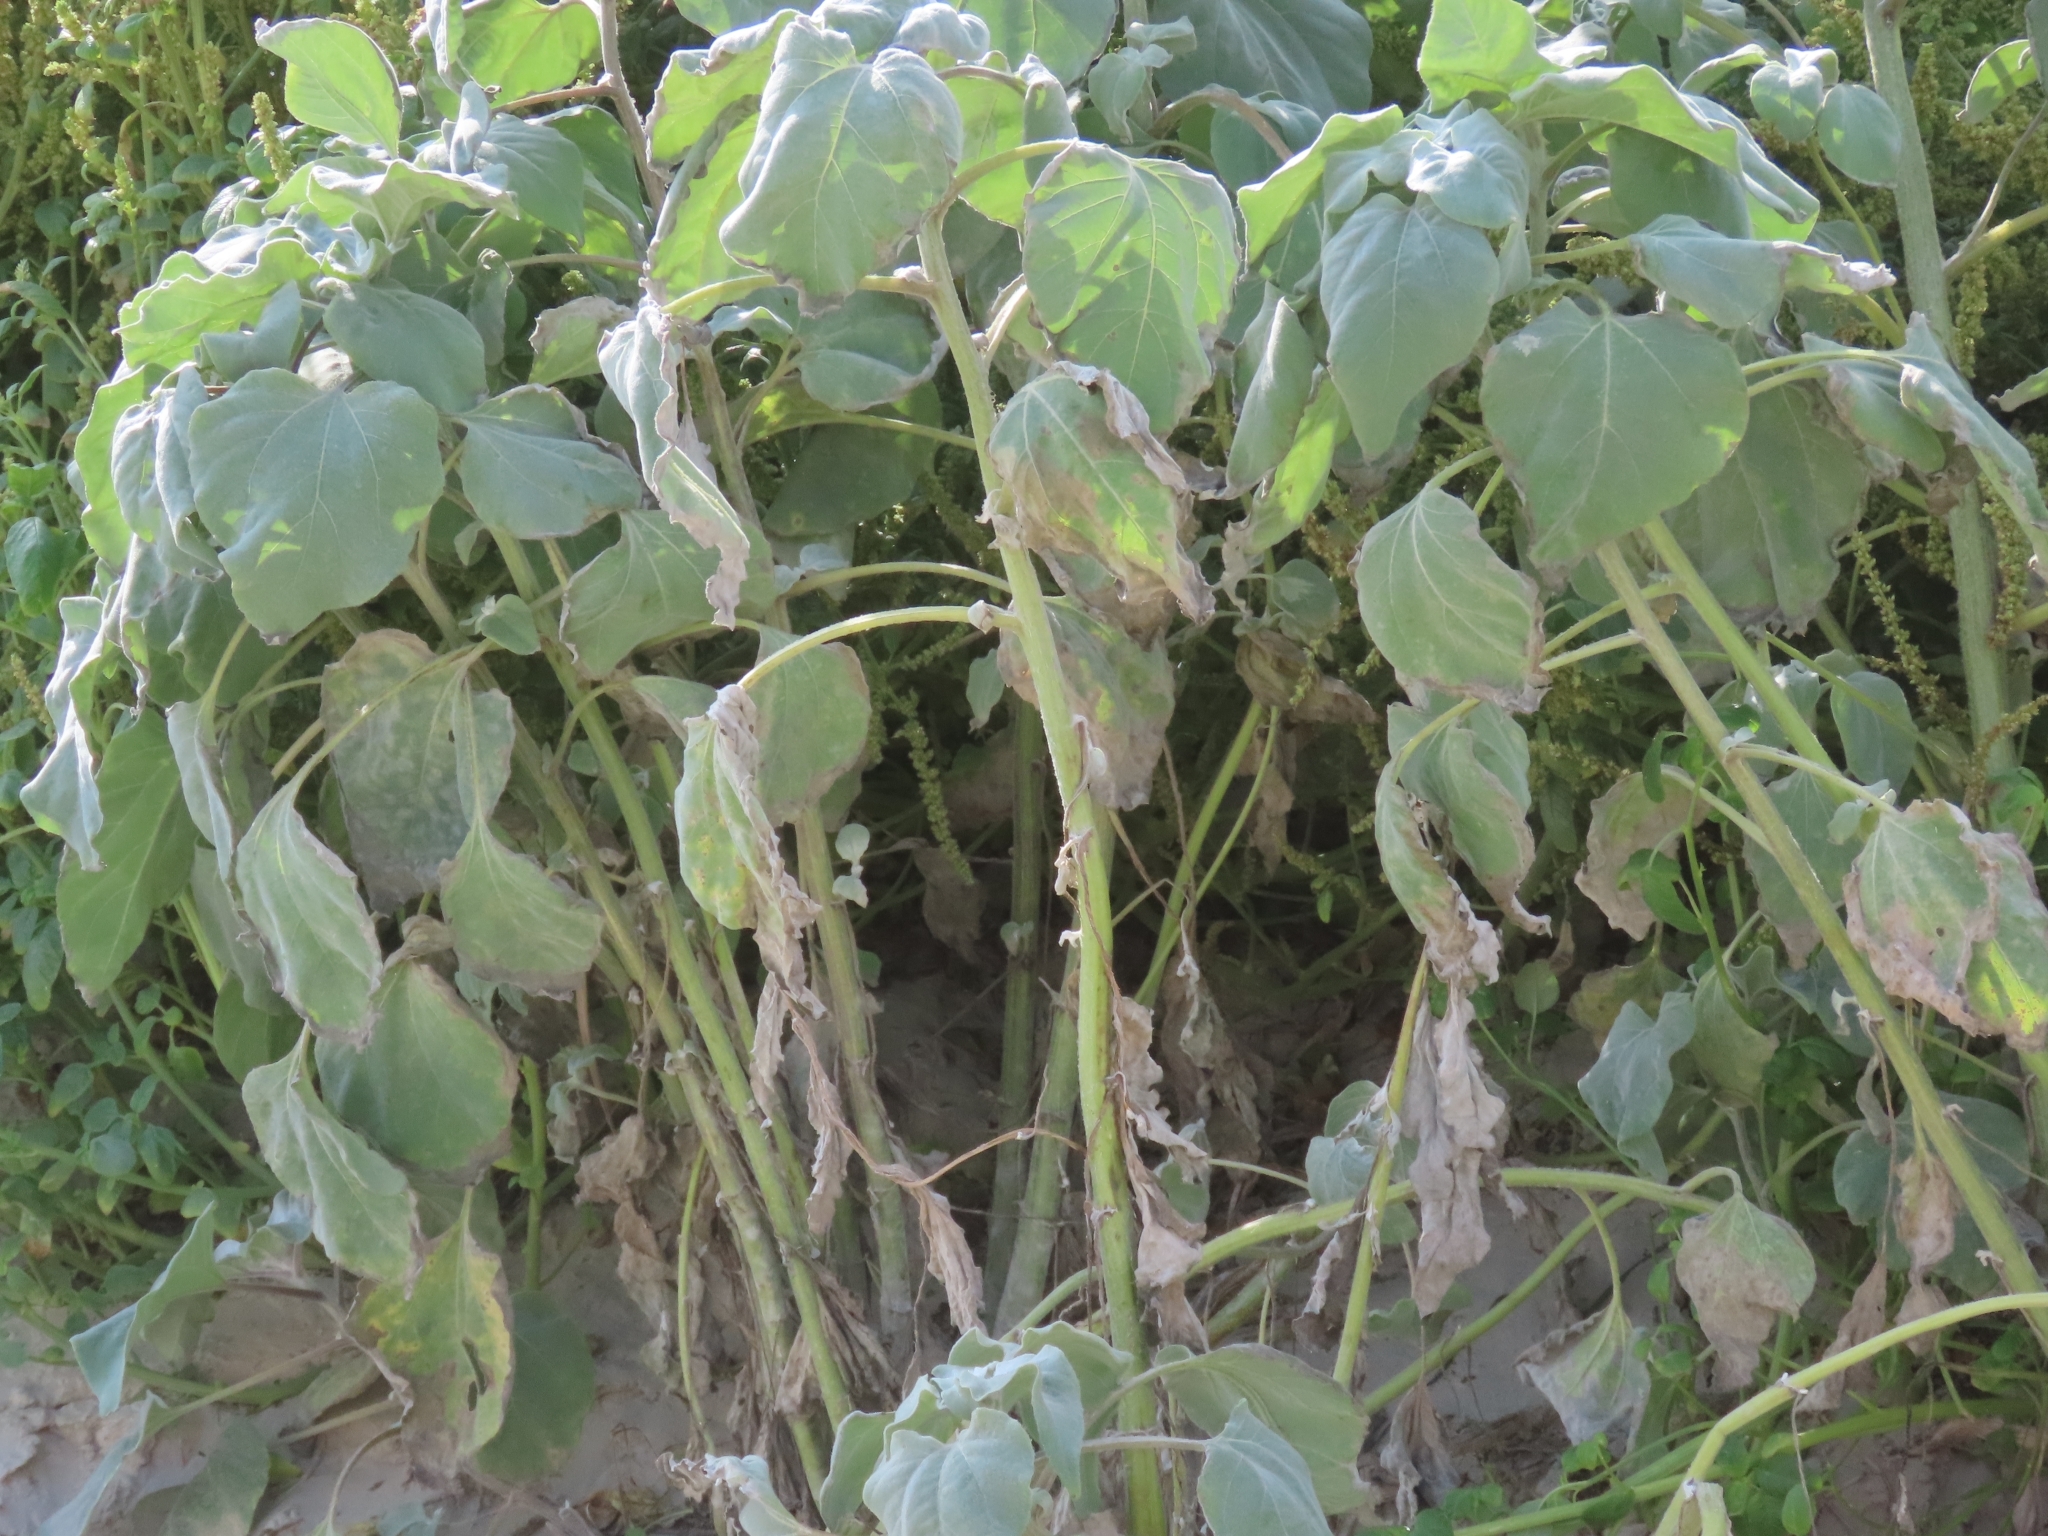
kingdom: Plantae
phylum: Tracheophyta
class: Magnoliopsida
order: Asterales
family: Asteraceae
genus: Helianthus
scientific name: Helianthus annuus
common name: Sunflower
